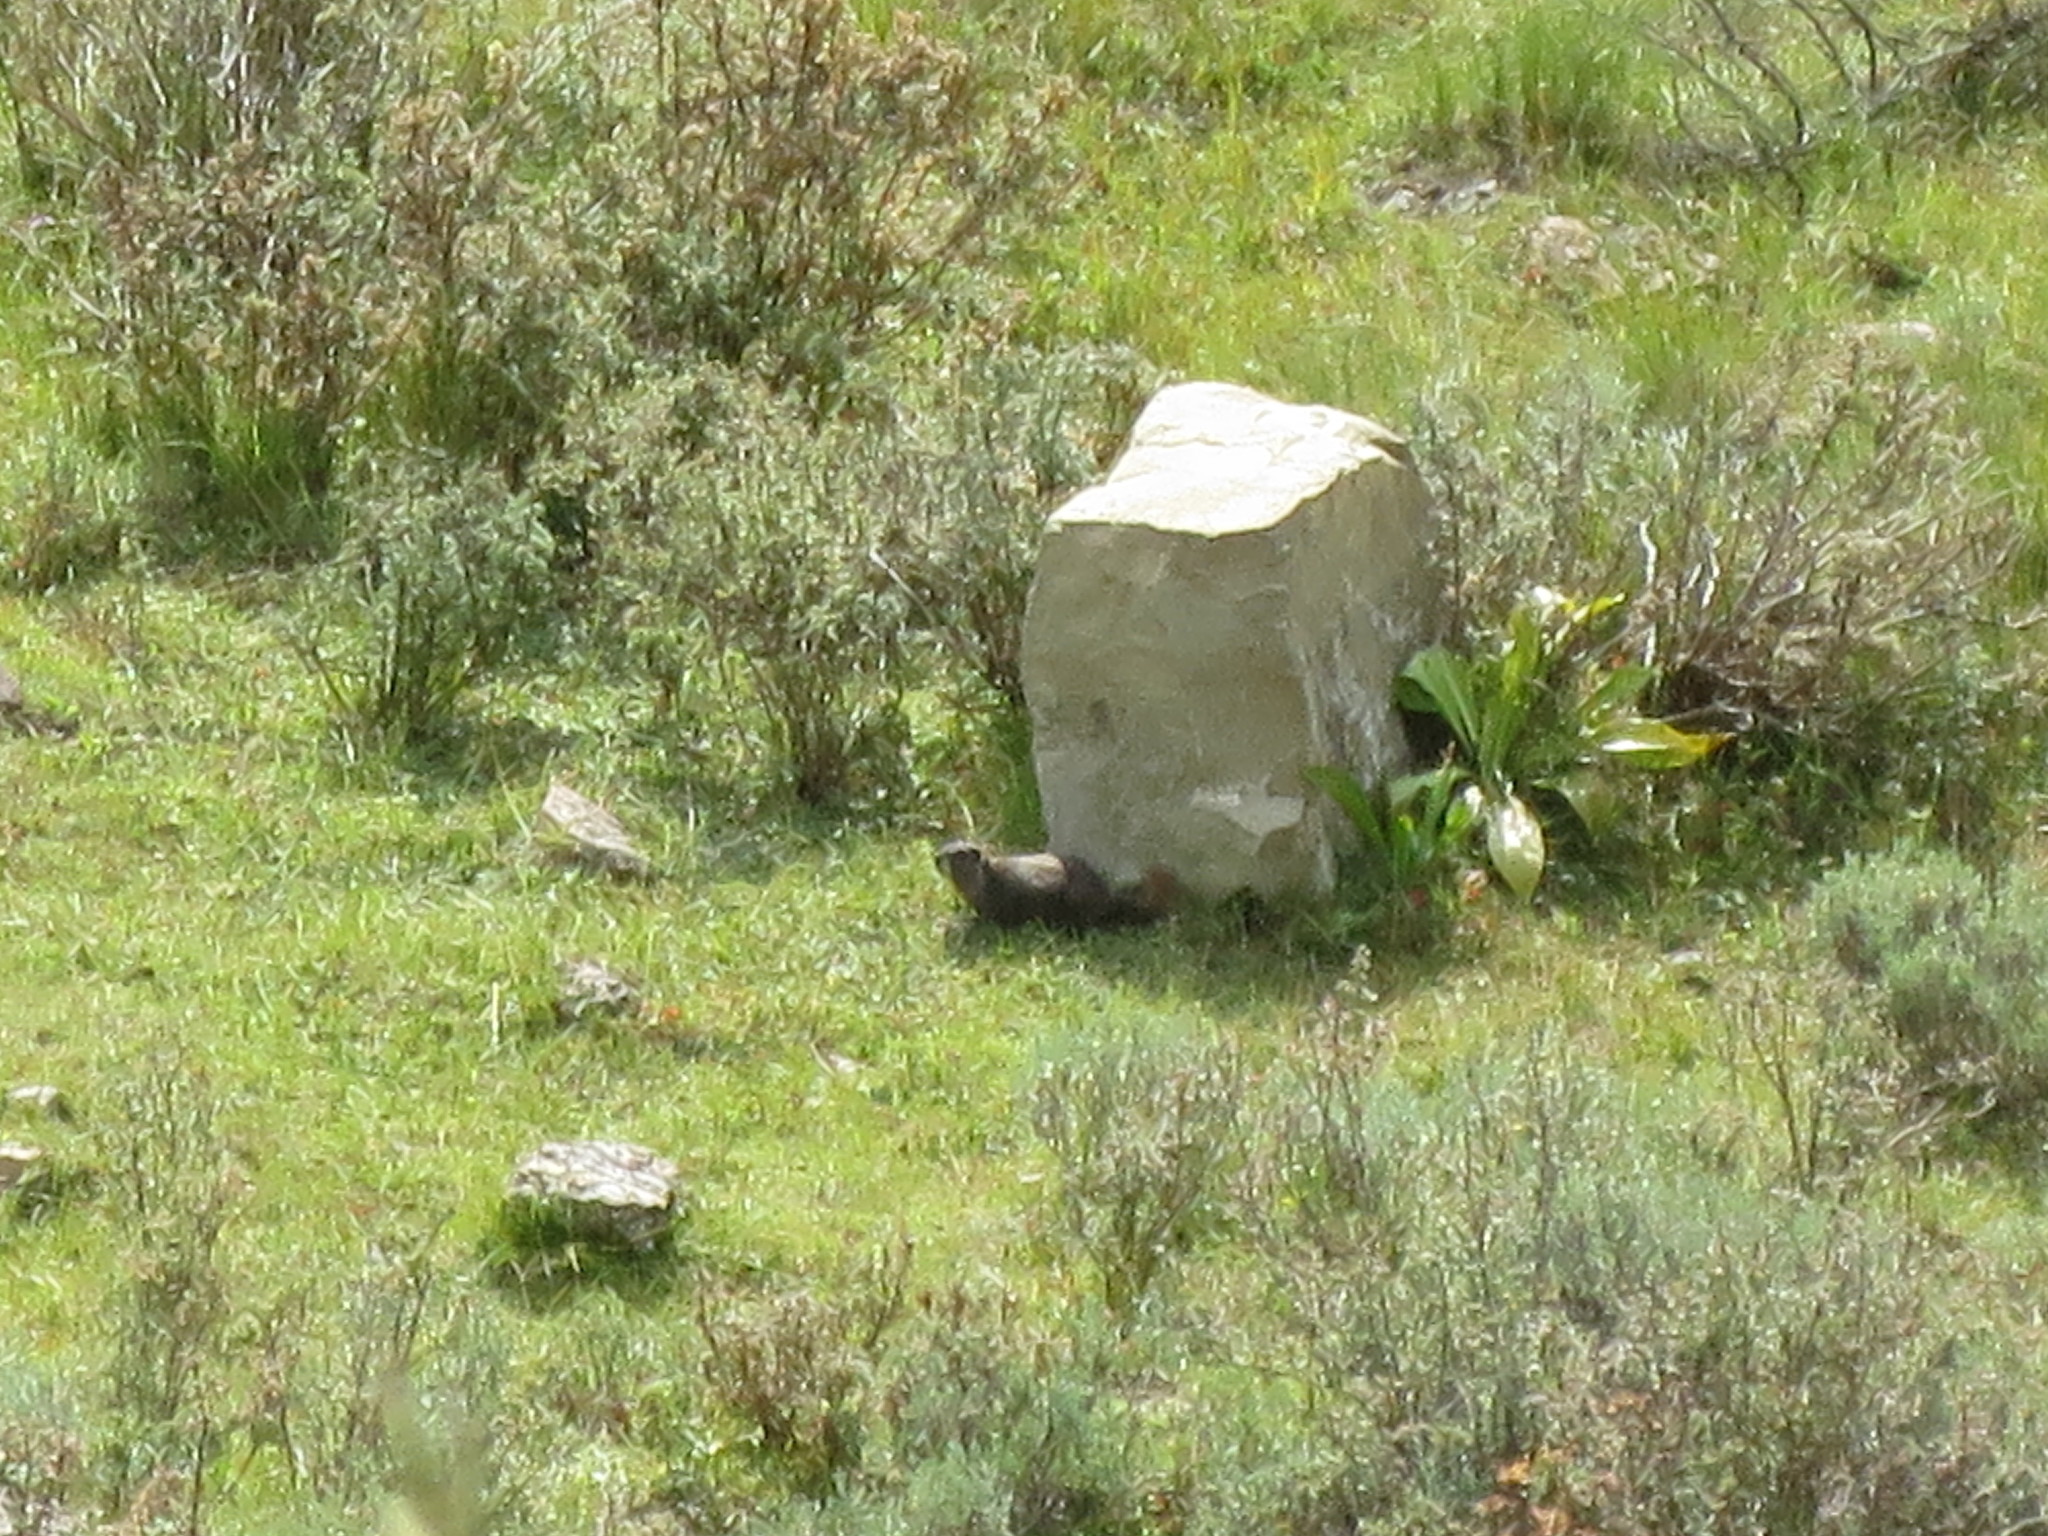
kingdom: Animalia
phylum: Chordata
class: Mammalia
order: Rodentia
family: Sciuridae
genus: Marmota
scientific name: Marmota flaviventris
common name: Yellow-bellied marmot
